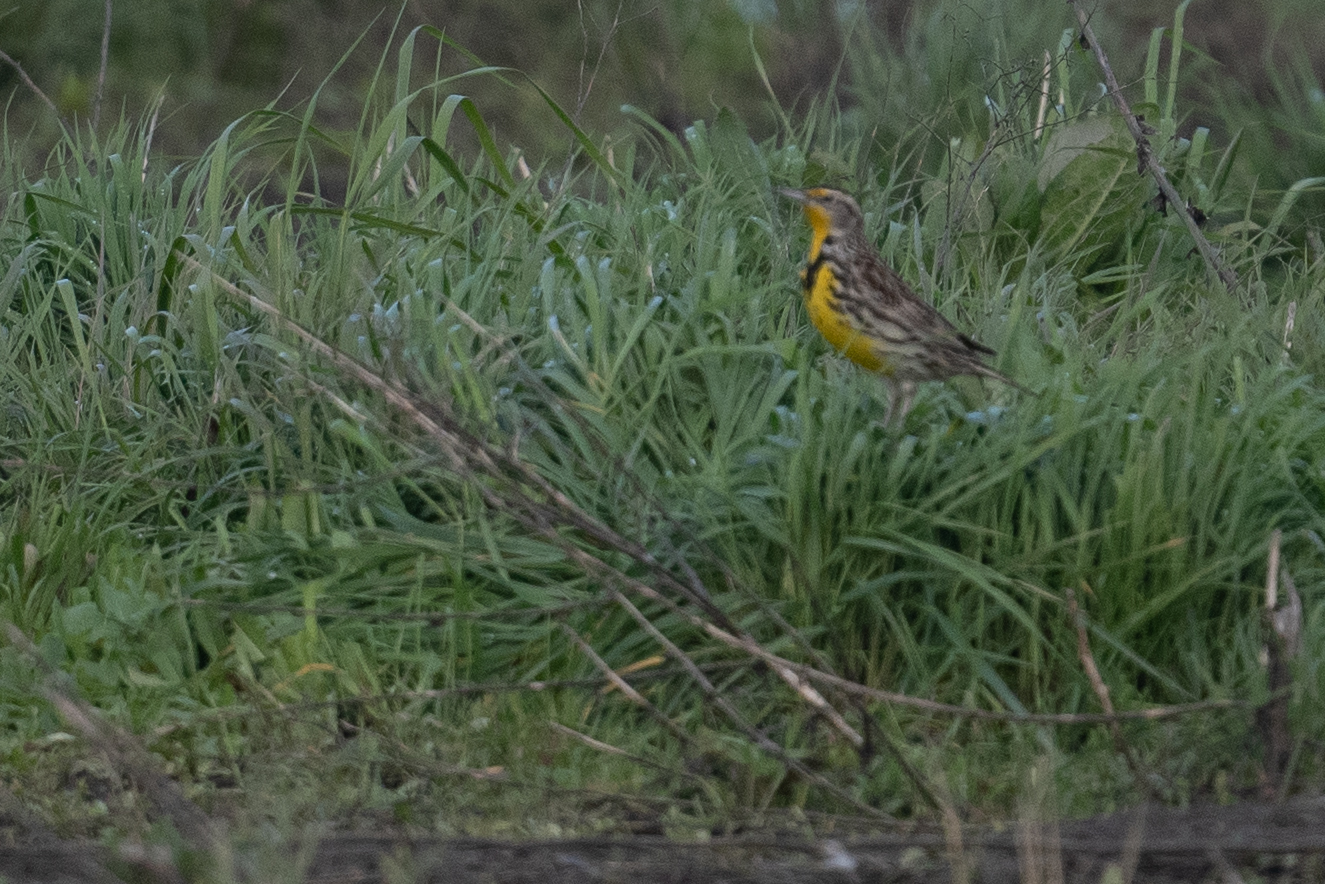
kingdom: Animalia
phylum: Chordata
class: Aves
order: Passeriformes
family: Icteridae
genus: Sturnella
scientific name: Sturnella neglecta
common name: Western meadowlark
